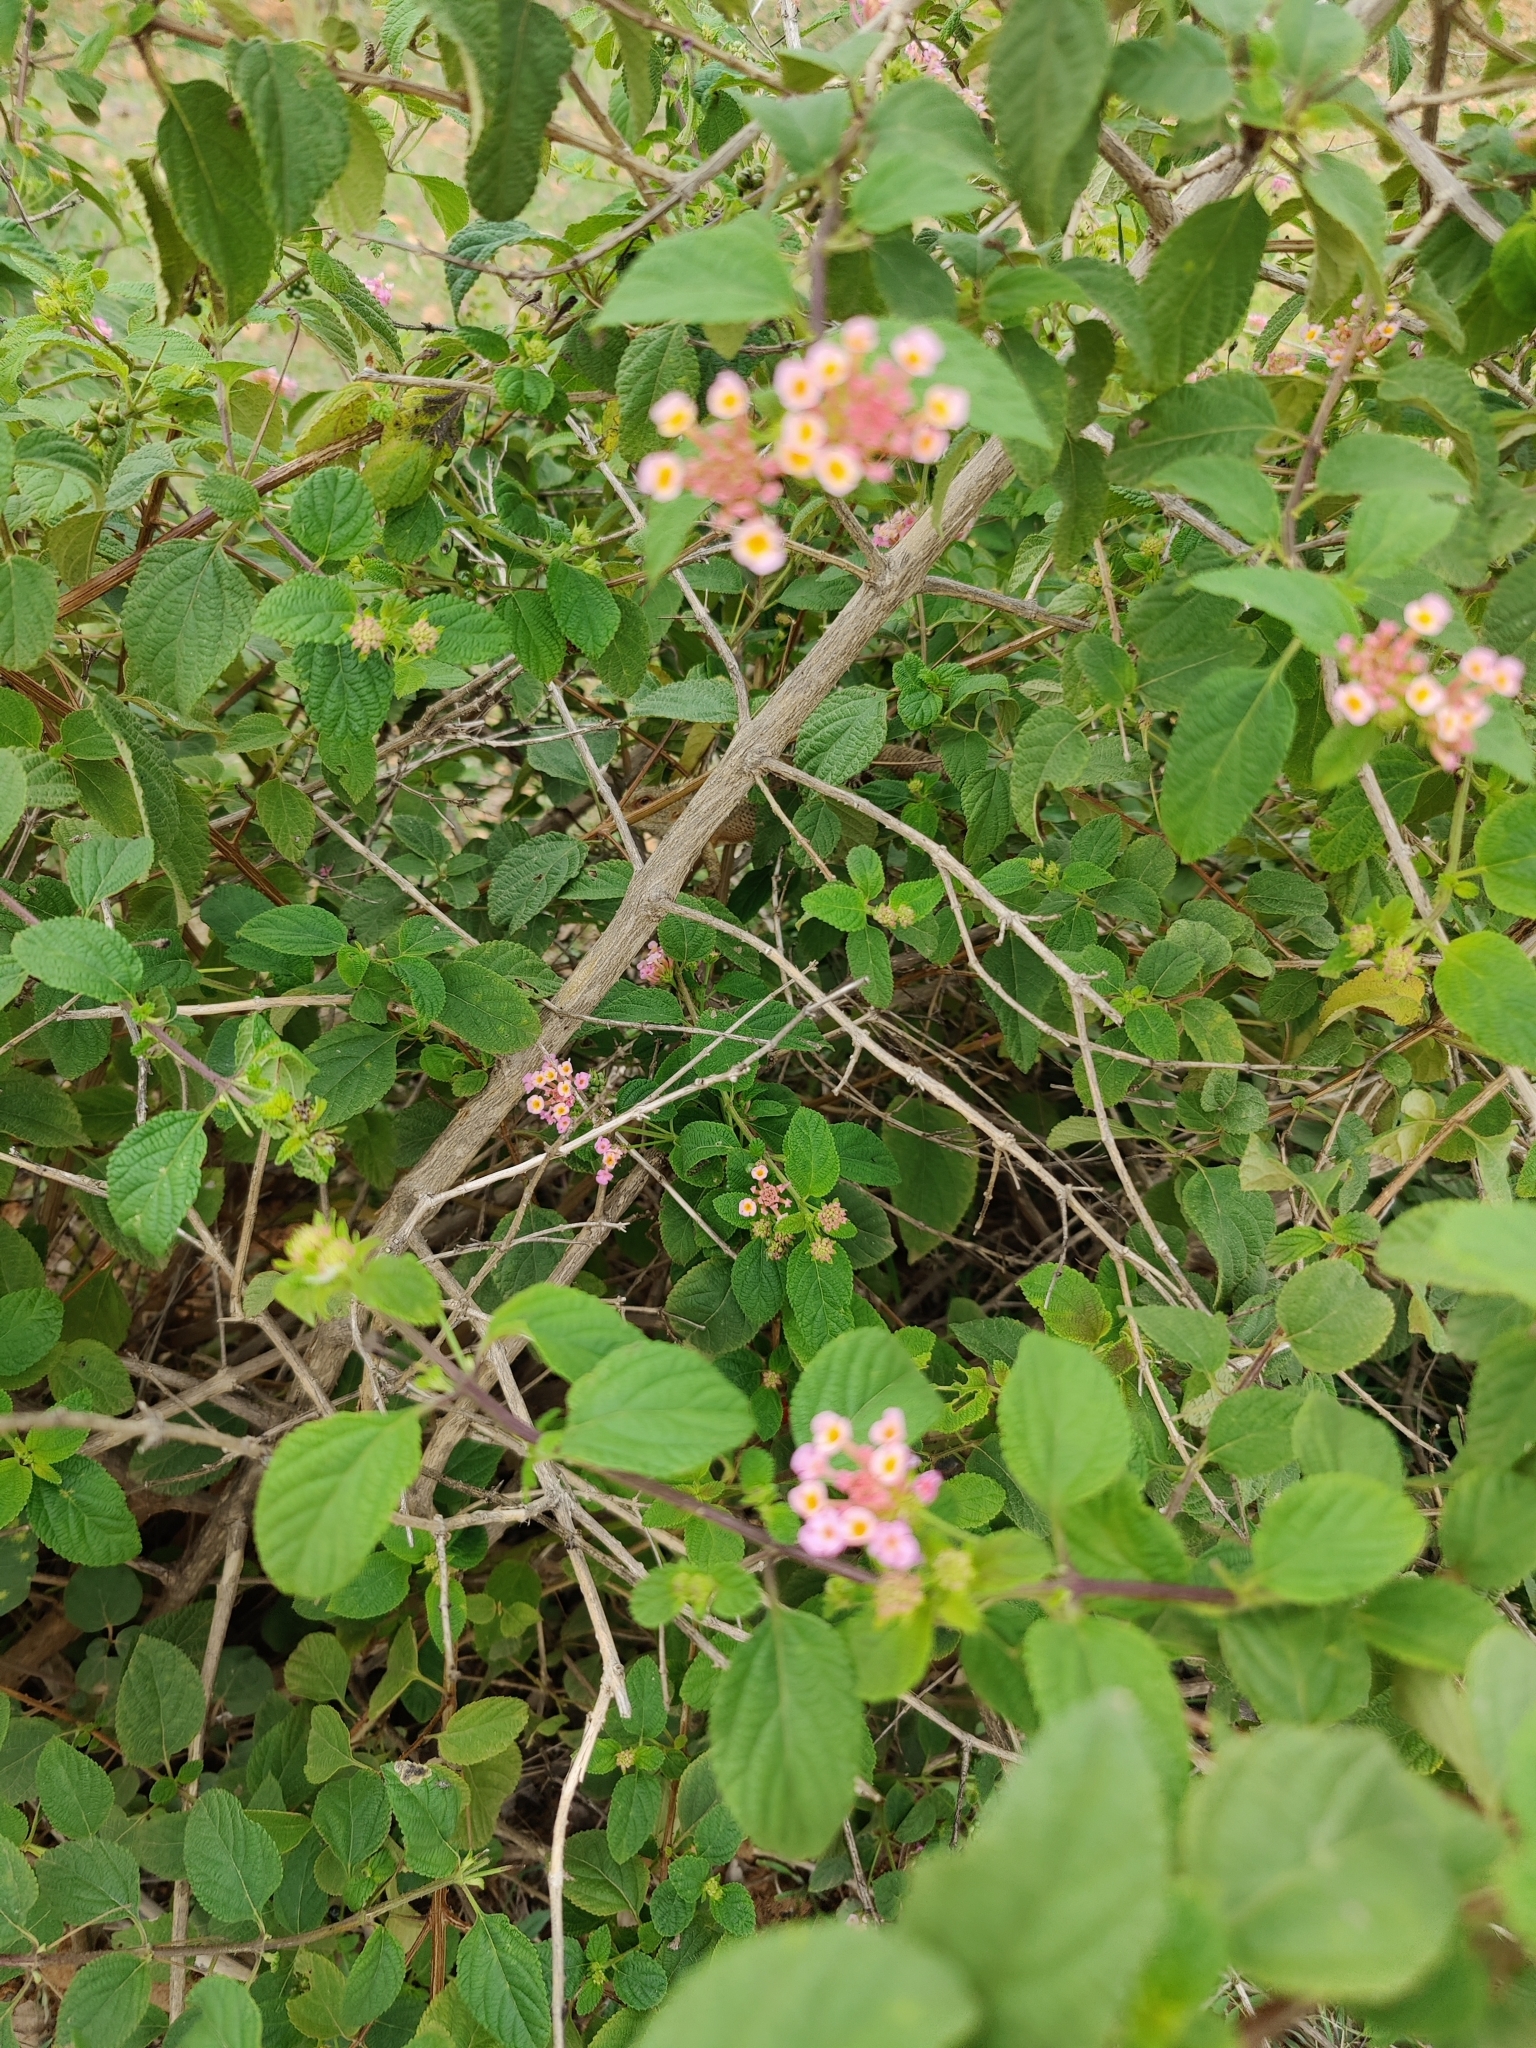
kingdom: Animalia
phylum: Chordata
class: Squamata
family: Agamidae
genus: Calotes
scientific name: Calotes versicolor
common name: Oriental garden lizard
